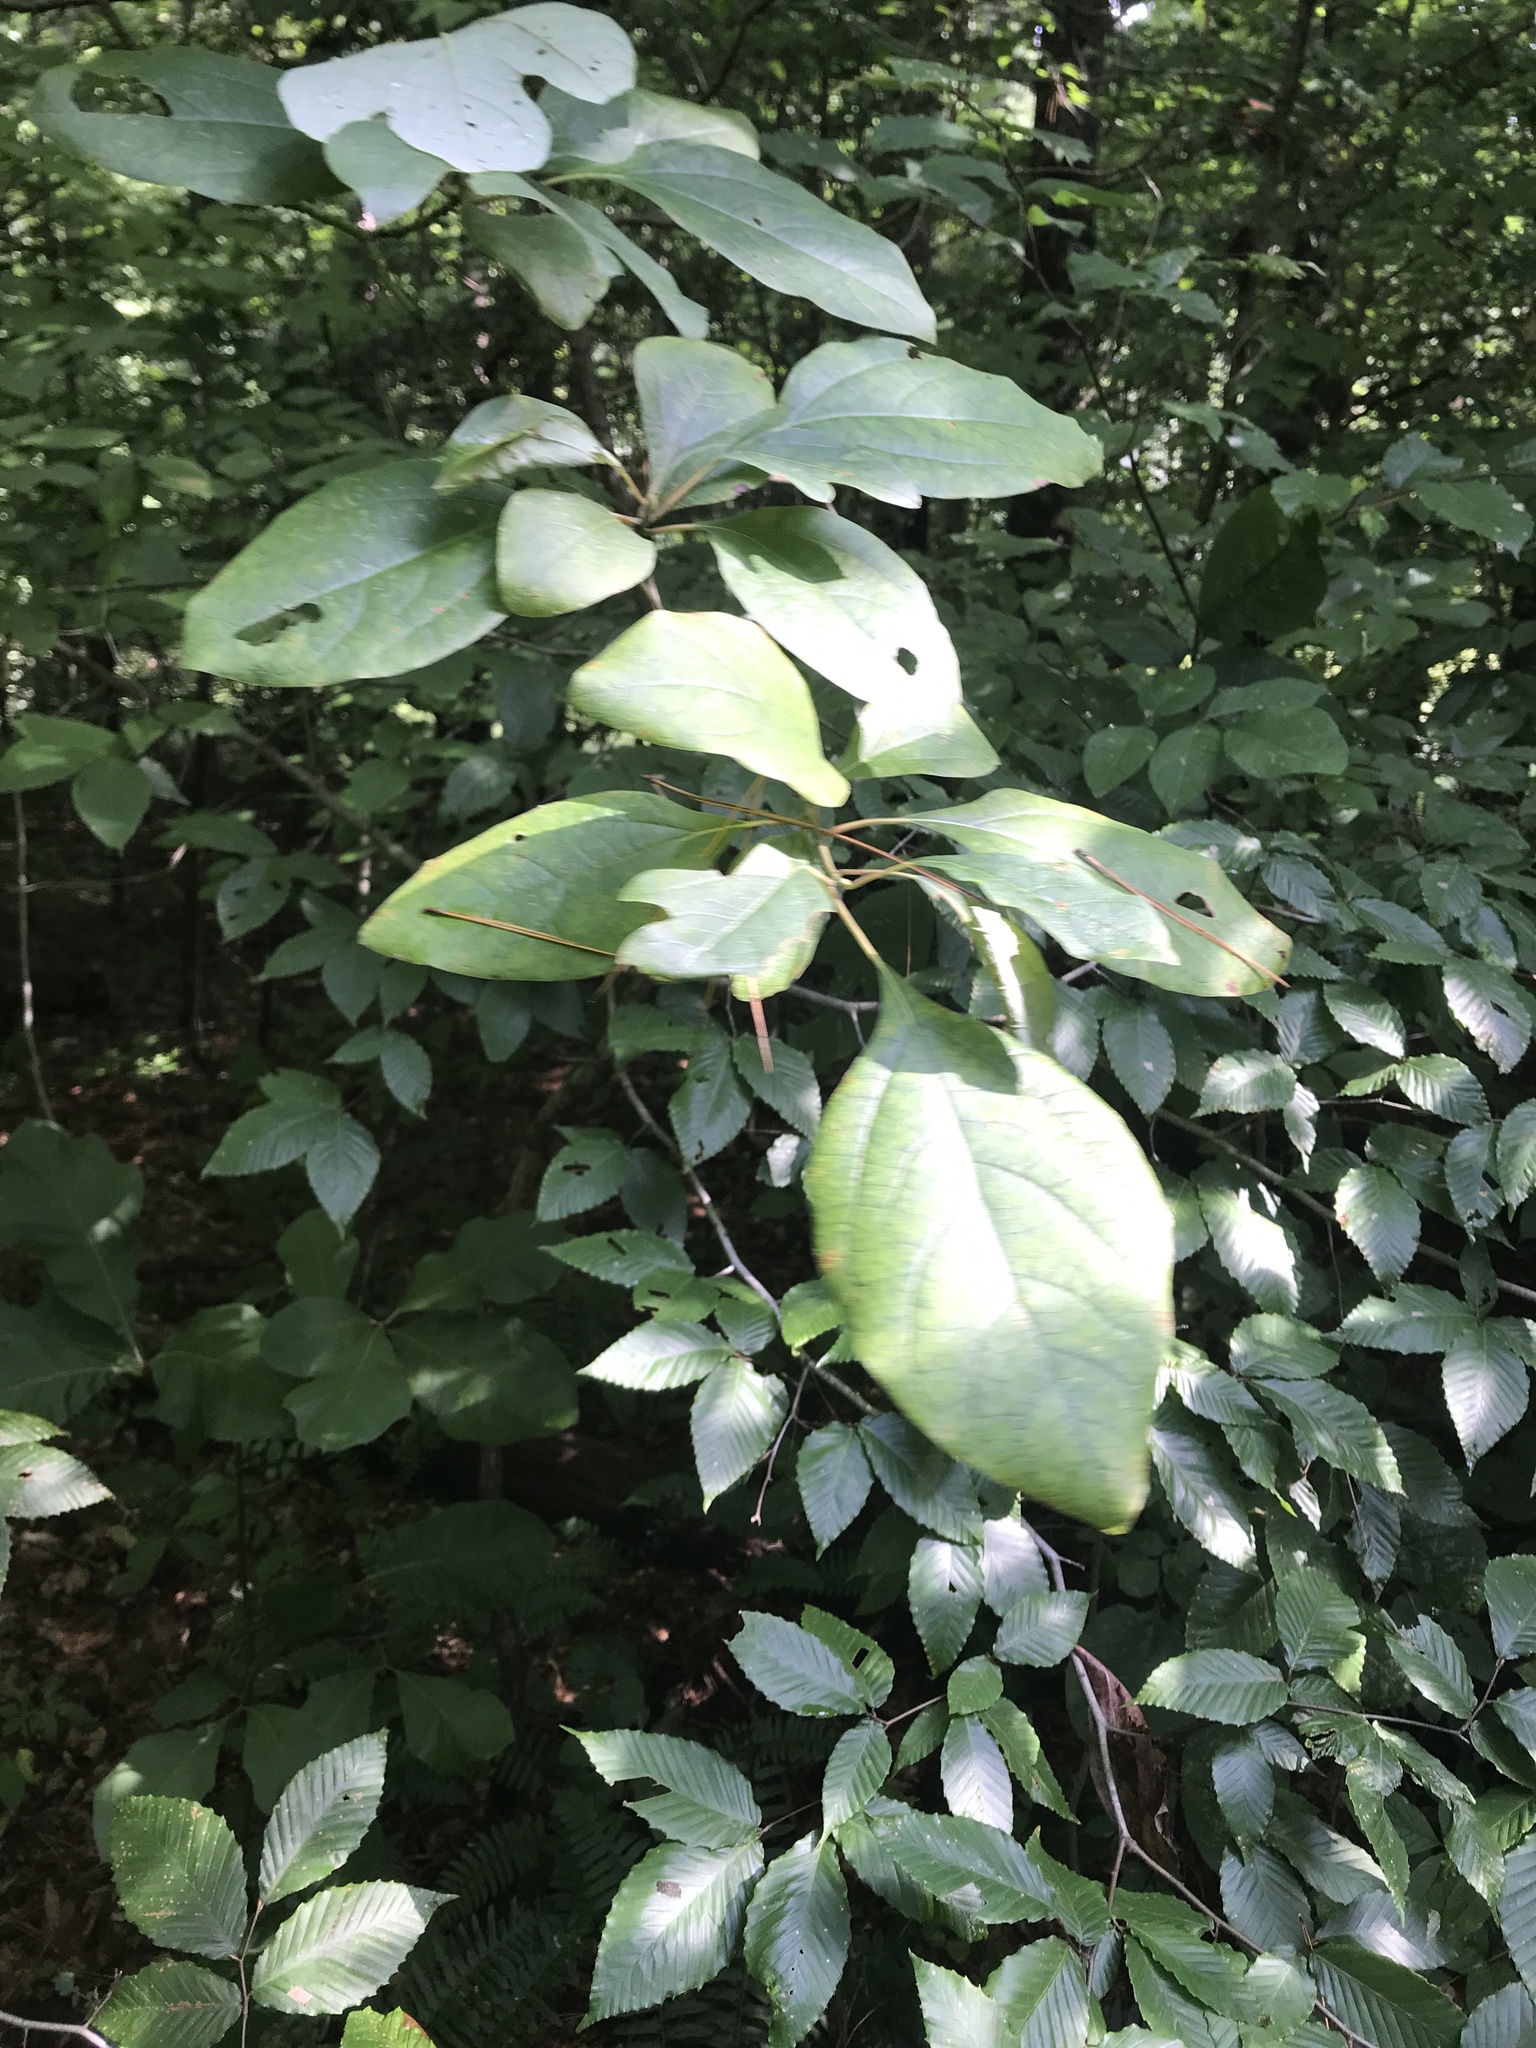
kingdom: Plantae
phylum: Tracheophyta
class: Magnoliopsida
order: Laurales
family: Lauraceae
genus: Sassafras
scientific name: Sassafras albidum
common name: Sassafras
